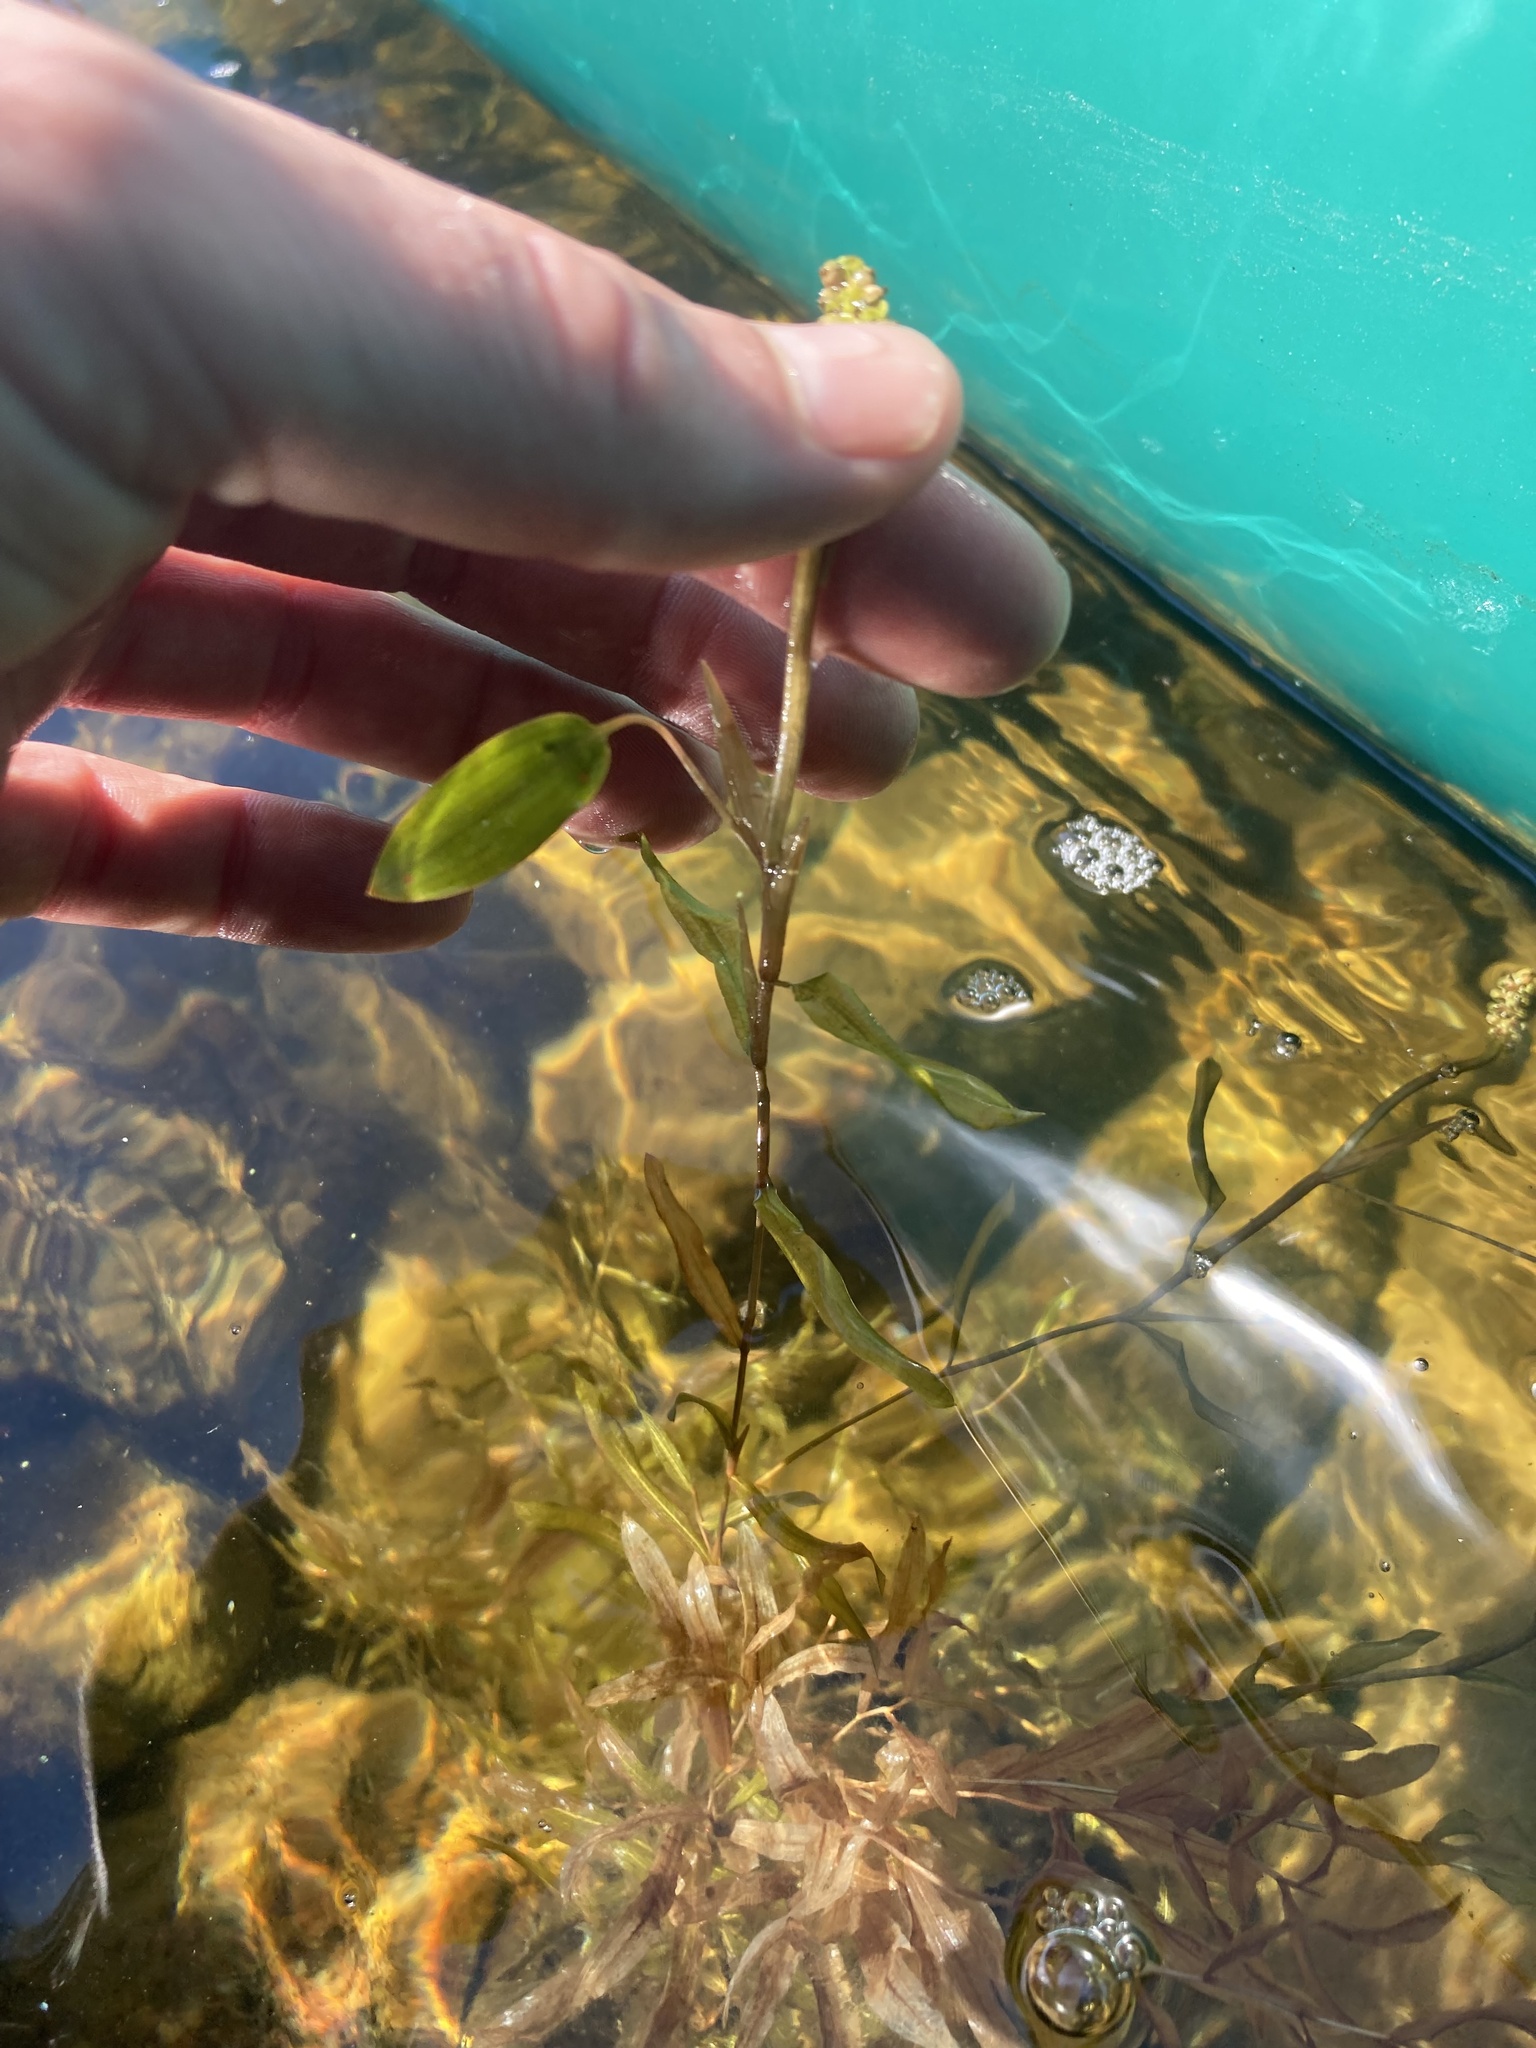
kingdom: Plantae
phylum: Tracheophyta
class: Liliopsida
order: Alismatales
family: Potamogetonaceae
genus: Potamogeton
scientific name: Potamogeton gramineus
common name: Various-leaved pondweed
